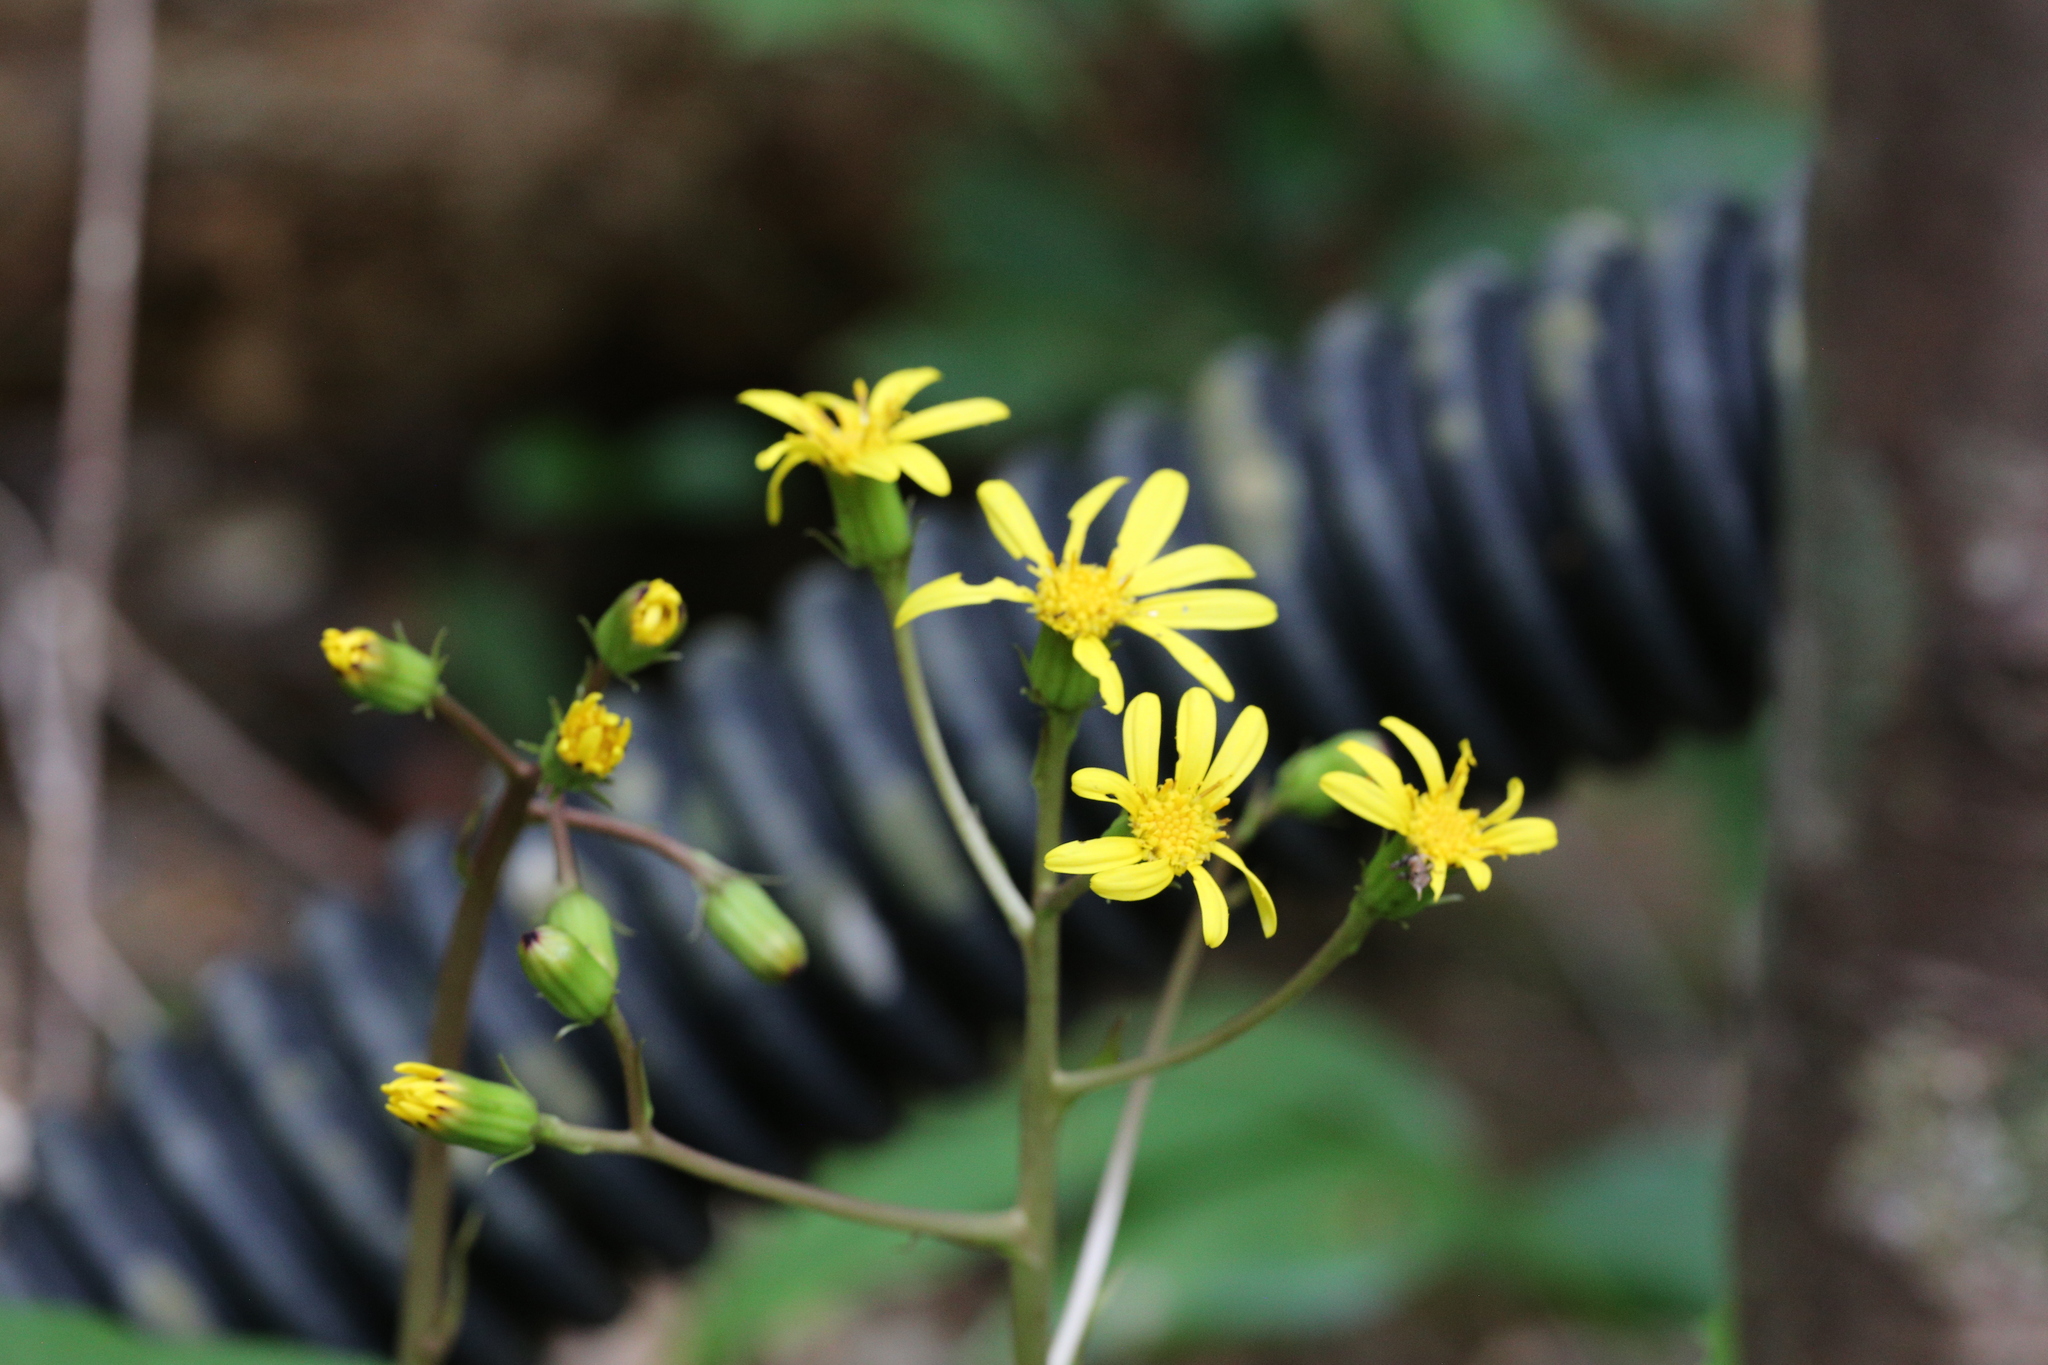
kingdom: Plantae
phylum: Tracheophyta
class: Magnoliopsida
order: Asterales
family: Asteraceae
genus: Farfugium
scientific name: Farfugium japonicum
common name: Leopardplant
